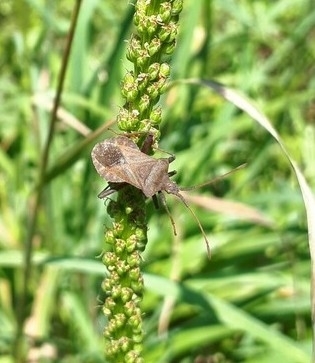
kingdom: Animalia
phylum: Arthropoda
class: Insecta
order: Hemiptera
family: Coreidae
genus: Coreus
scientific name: Coreus marginatus
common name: Dock bug
